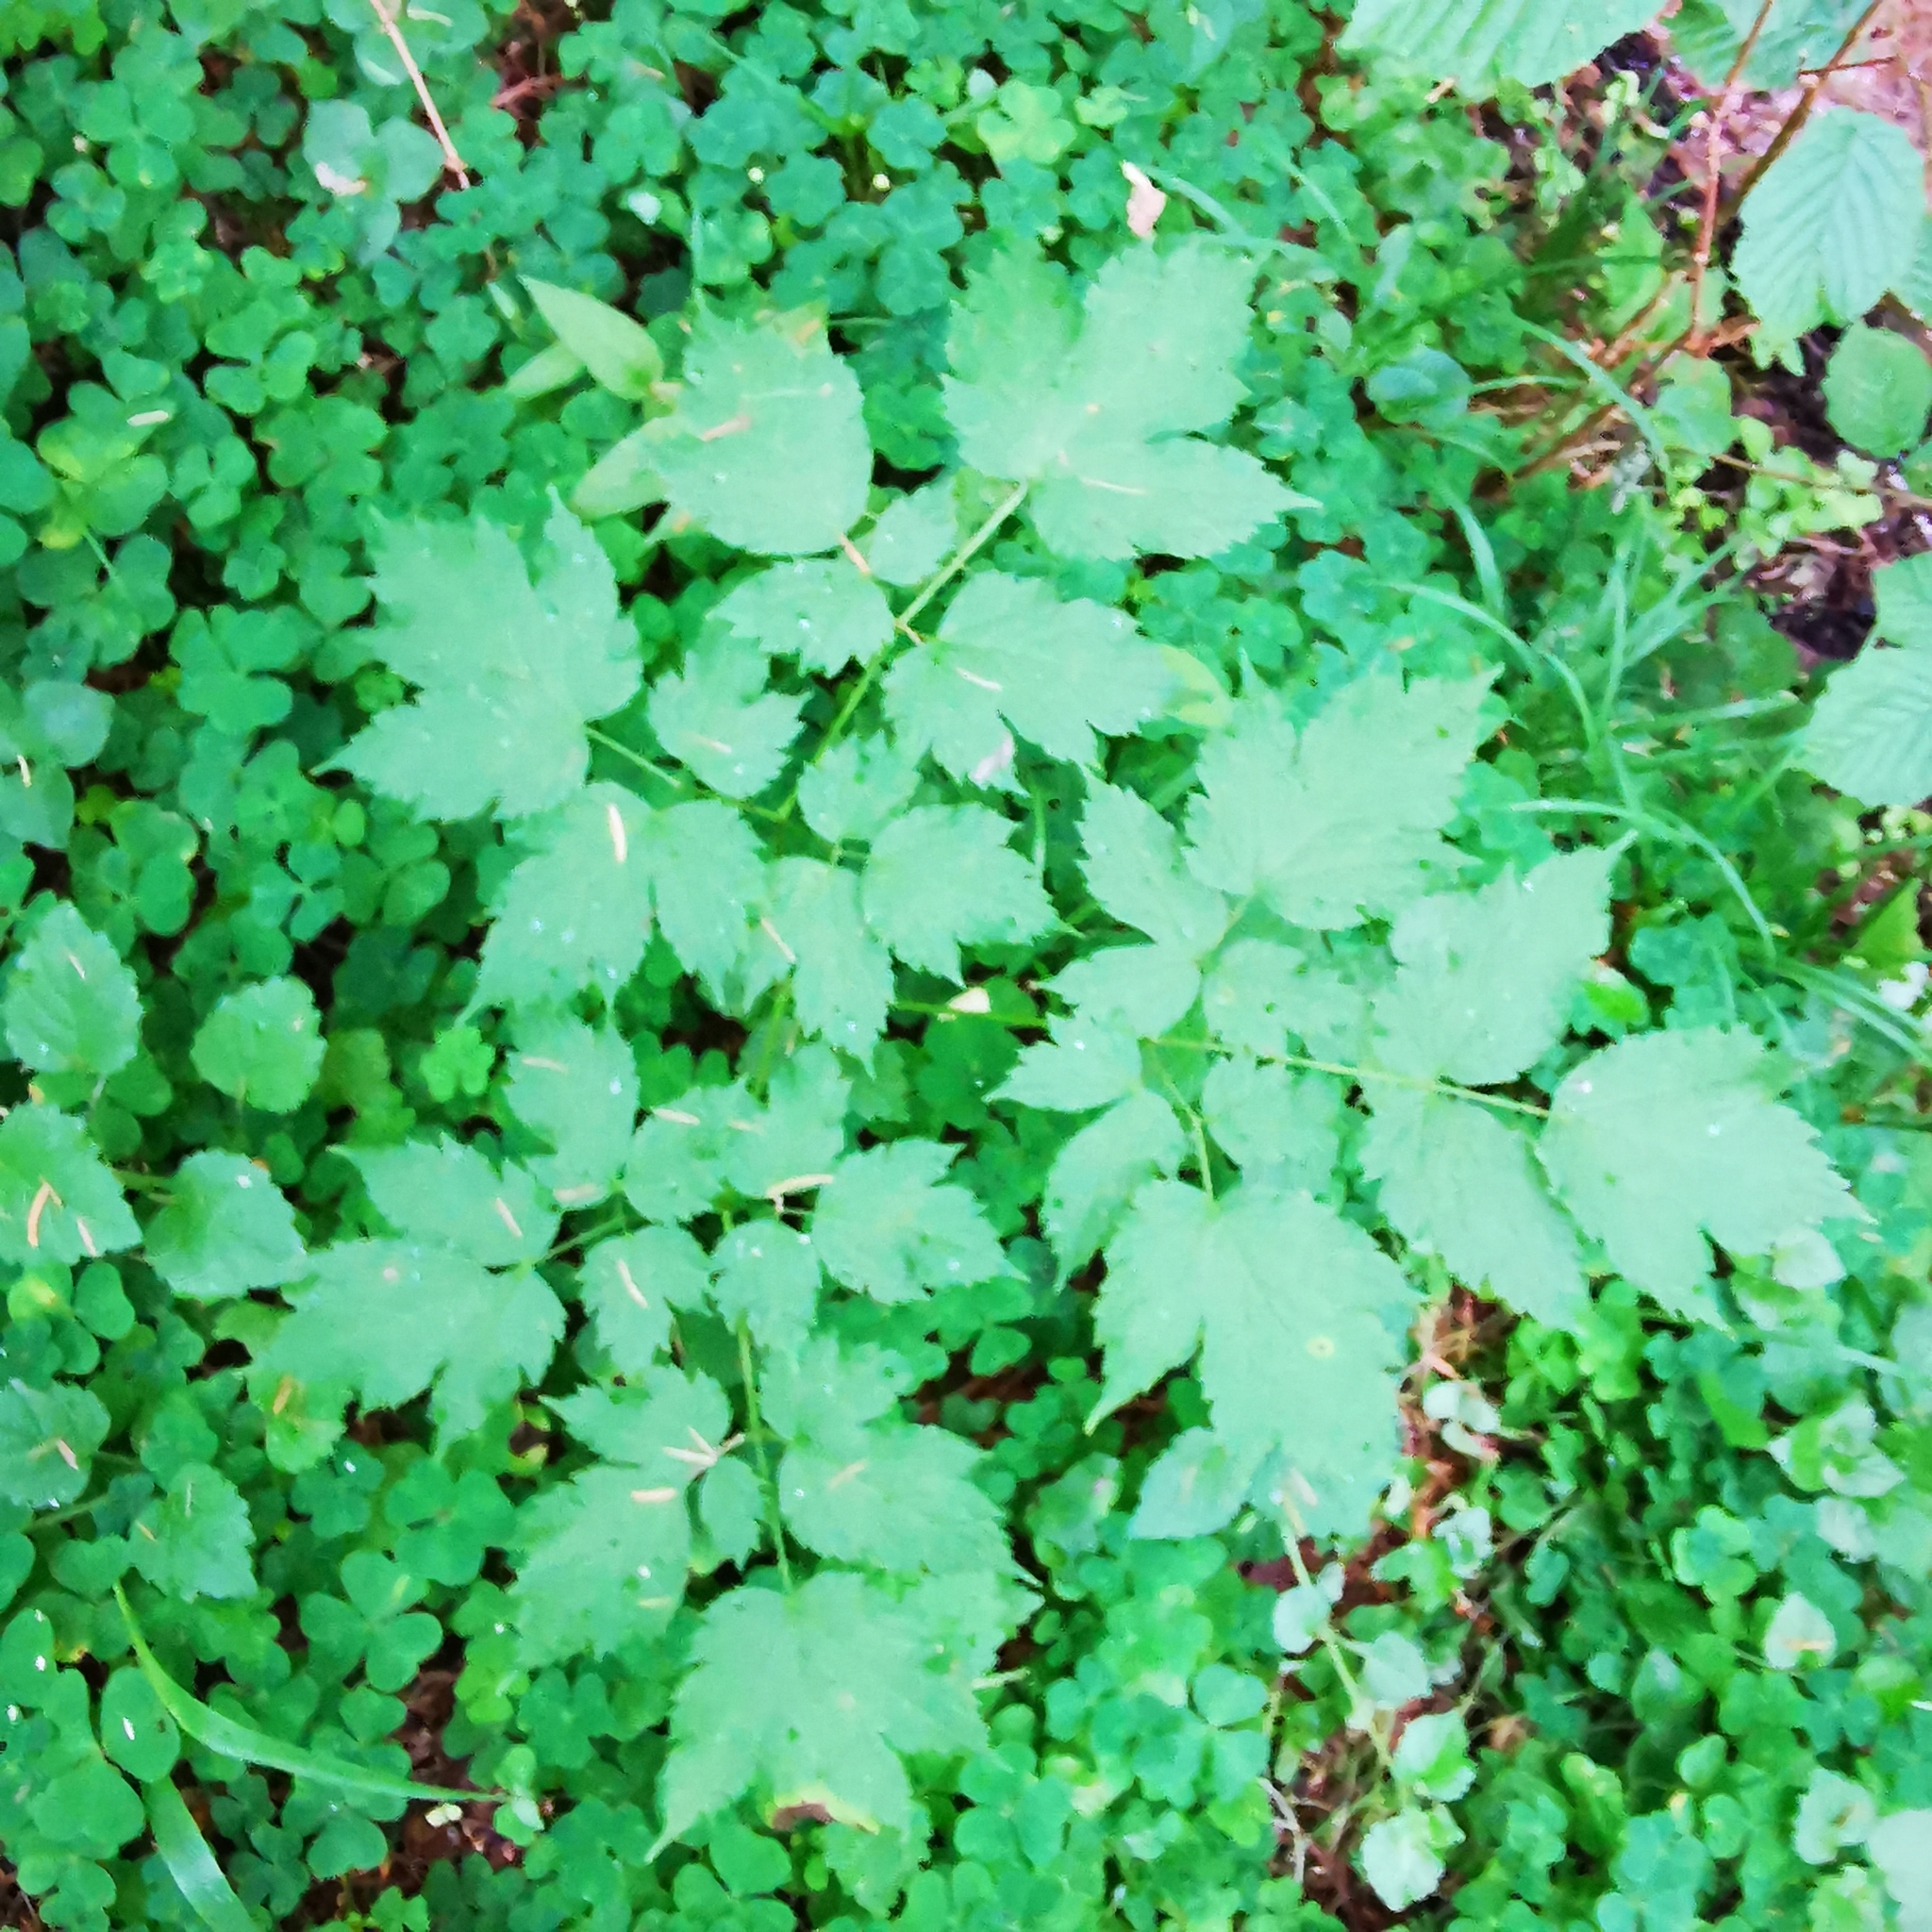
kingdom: Plantae
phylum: Tracheophyta
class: Magnoliopsida
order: Ranunculales
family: Ranunculaceae
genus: Actaea
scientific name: Actaea spicata
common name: Baneberry
